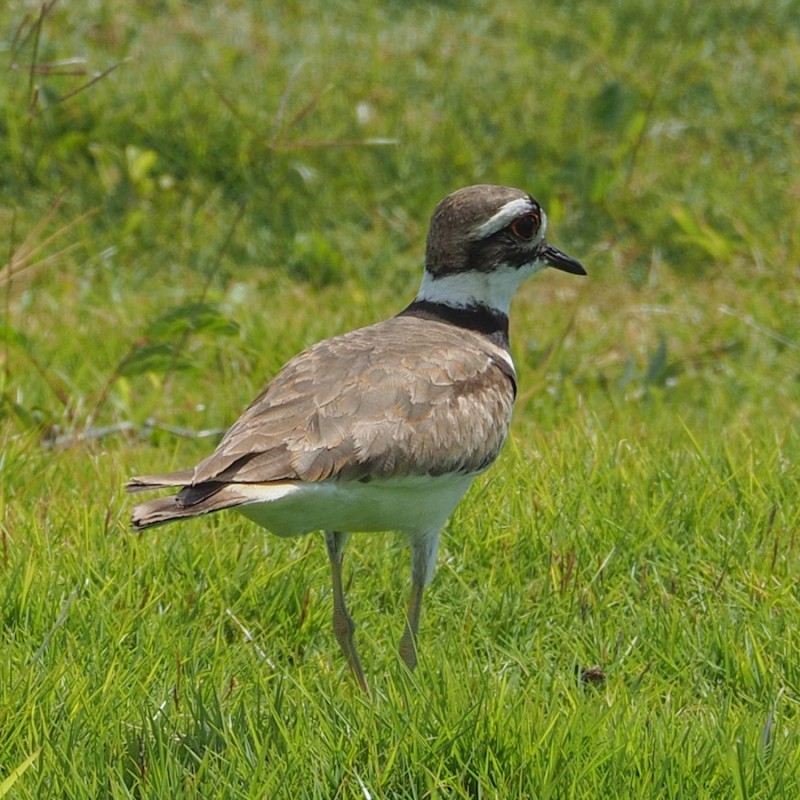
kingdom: Animalia
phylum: Chordata
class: Aves
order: Charadriiformes
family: Charadriidae
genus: Charadrius
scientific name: Charadrius vociferus
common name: Killdeer
